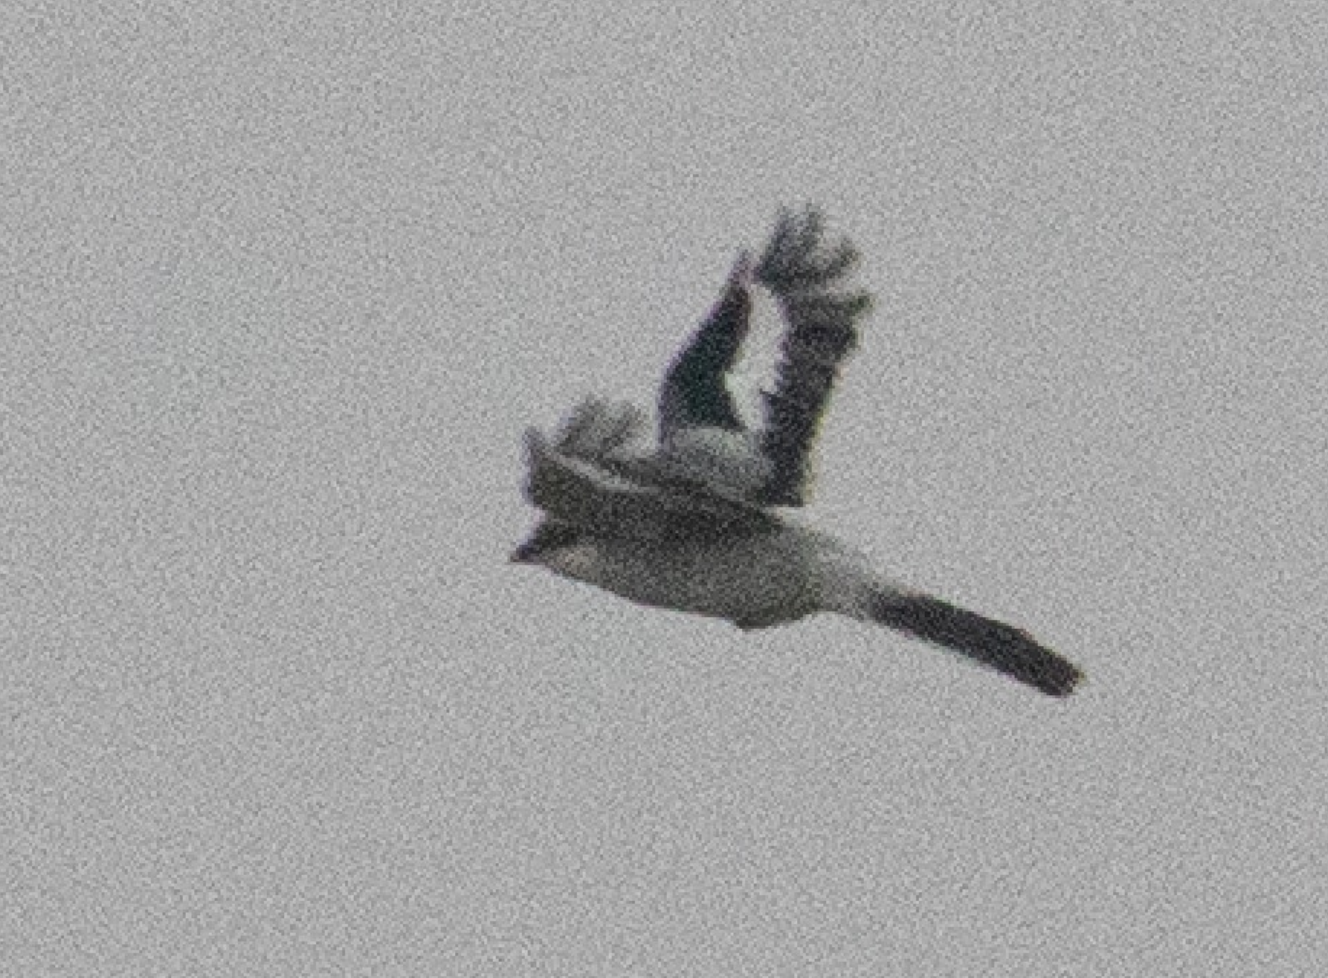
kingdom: Animalia
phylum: Chordata
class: Aves
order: Passeriformes
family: Laniidae
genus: Lanius
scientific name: Lanius excubitor
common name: Great grey shrike
